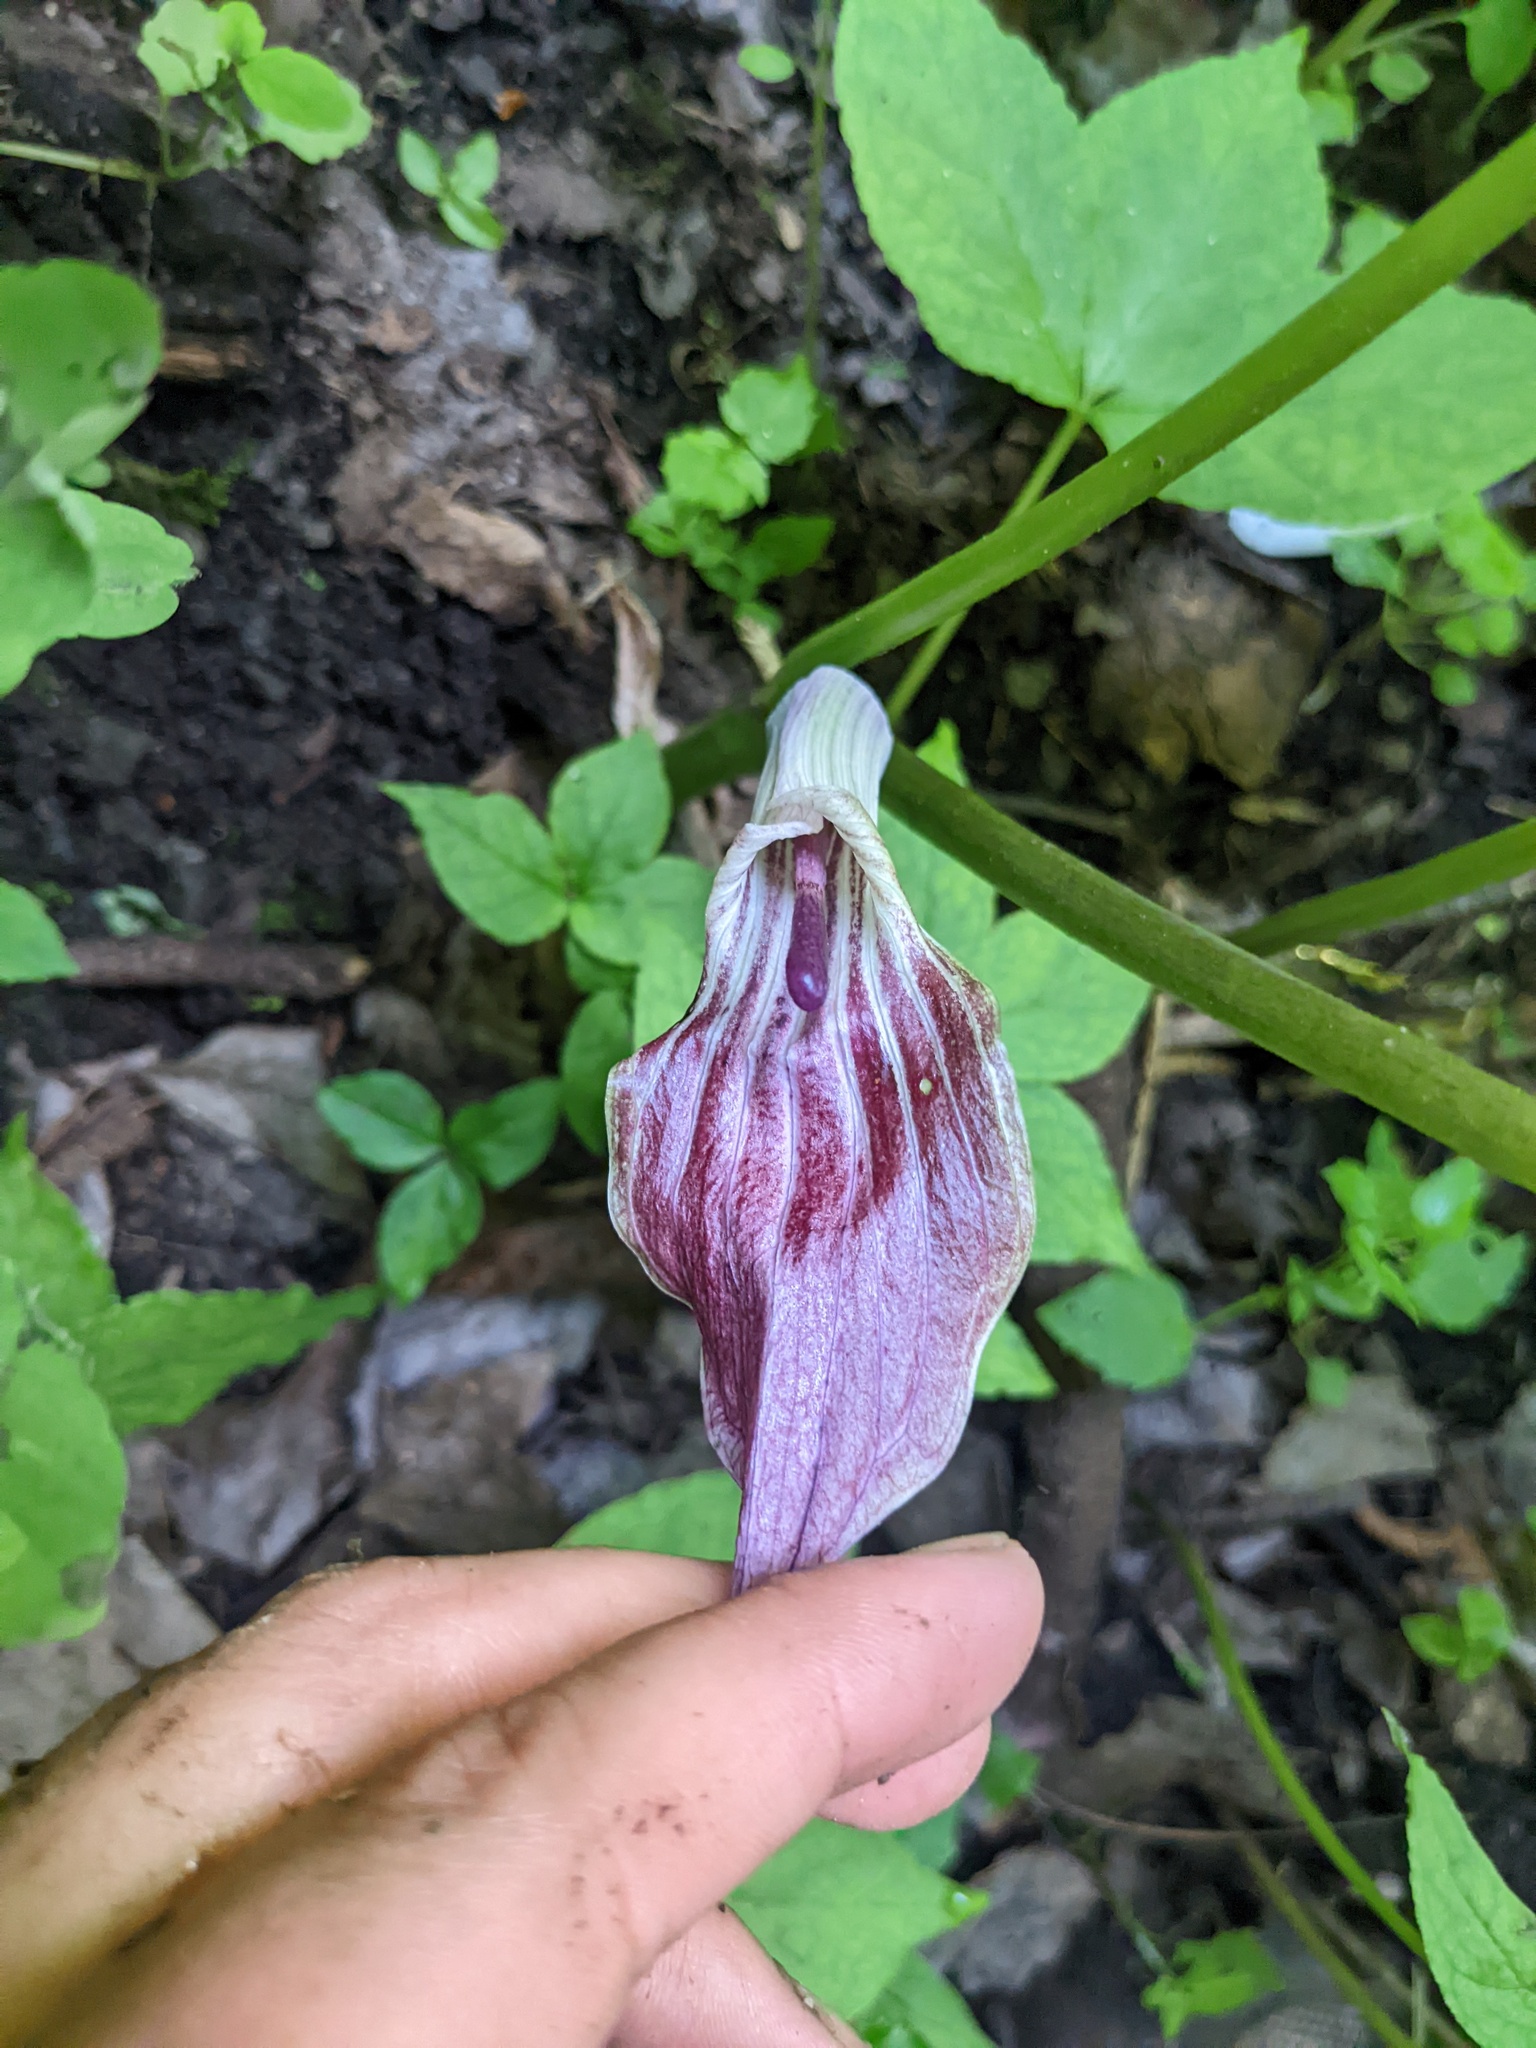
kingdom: Plantae
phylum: Tracheophyta
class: Liliopsida
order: Alismatales
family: Araceae
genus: Arisaema
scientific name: Arisaema quinatum
